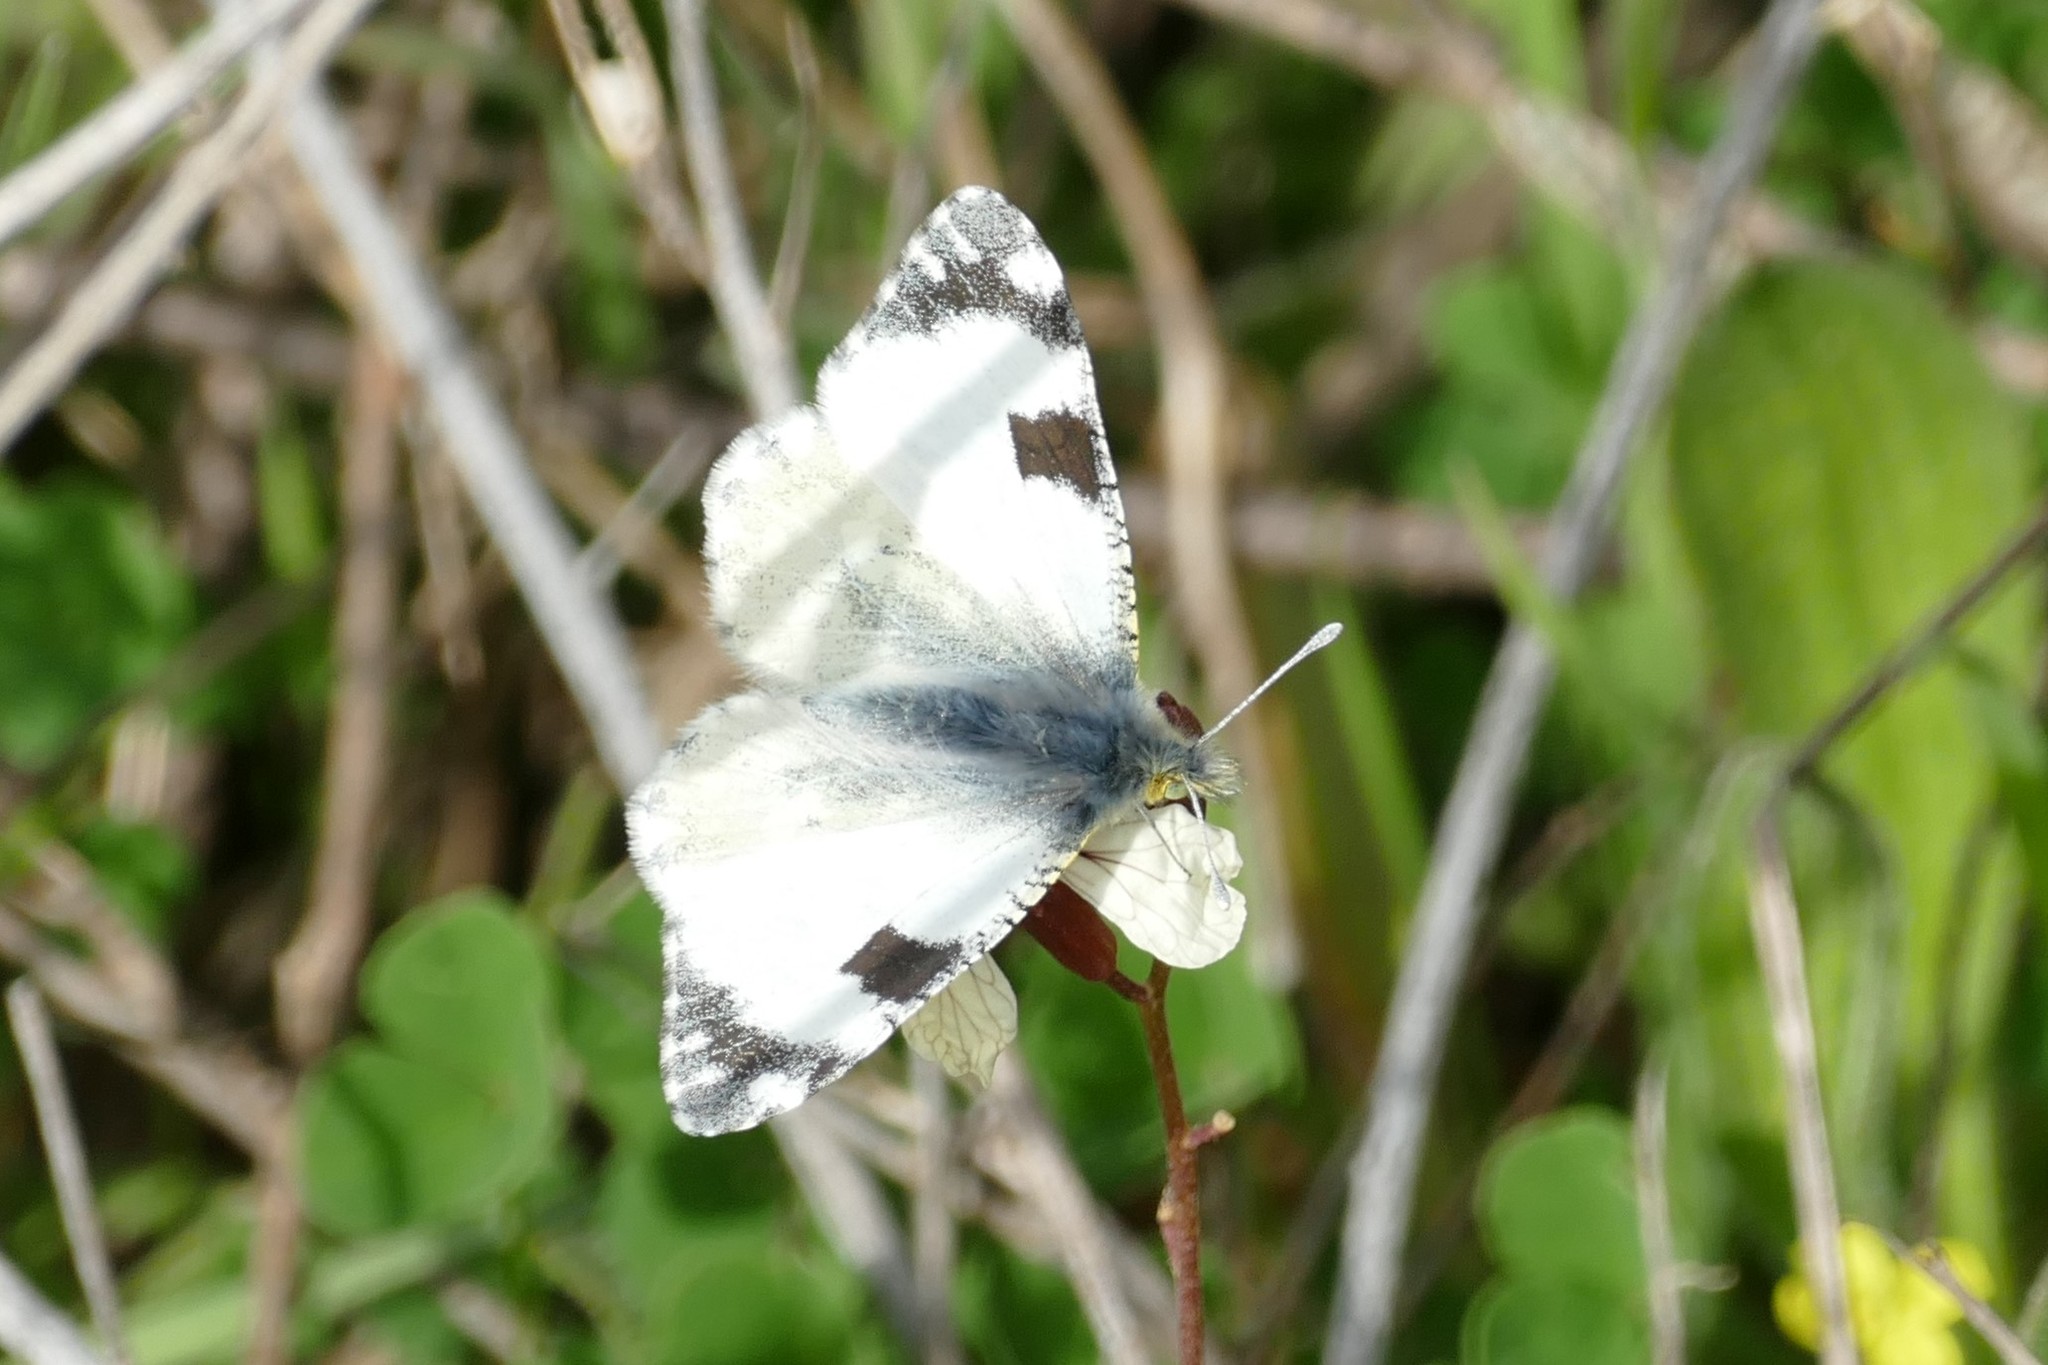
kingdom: Animalia
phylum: Arthropoda
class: Insecta
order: Lepidoptera
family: Pieridae
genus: Euchloe
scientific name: Euchloe crameri
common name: Western dappled white
